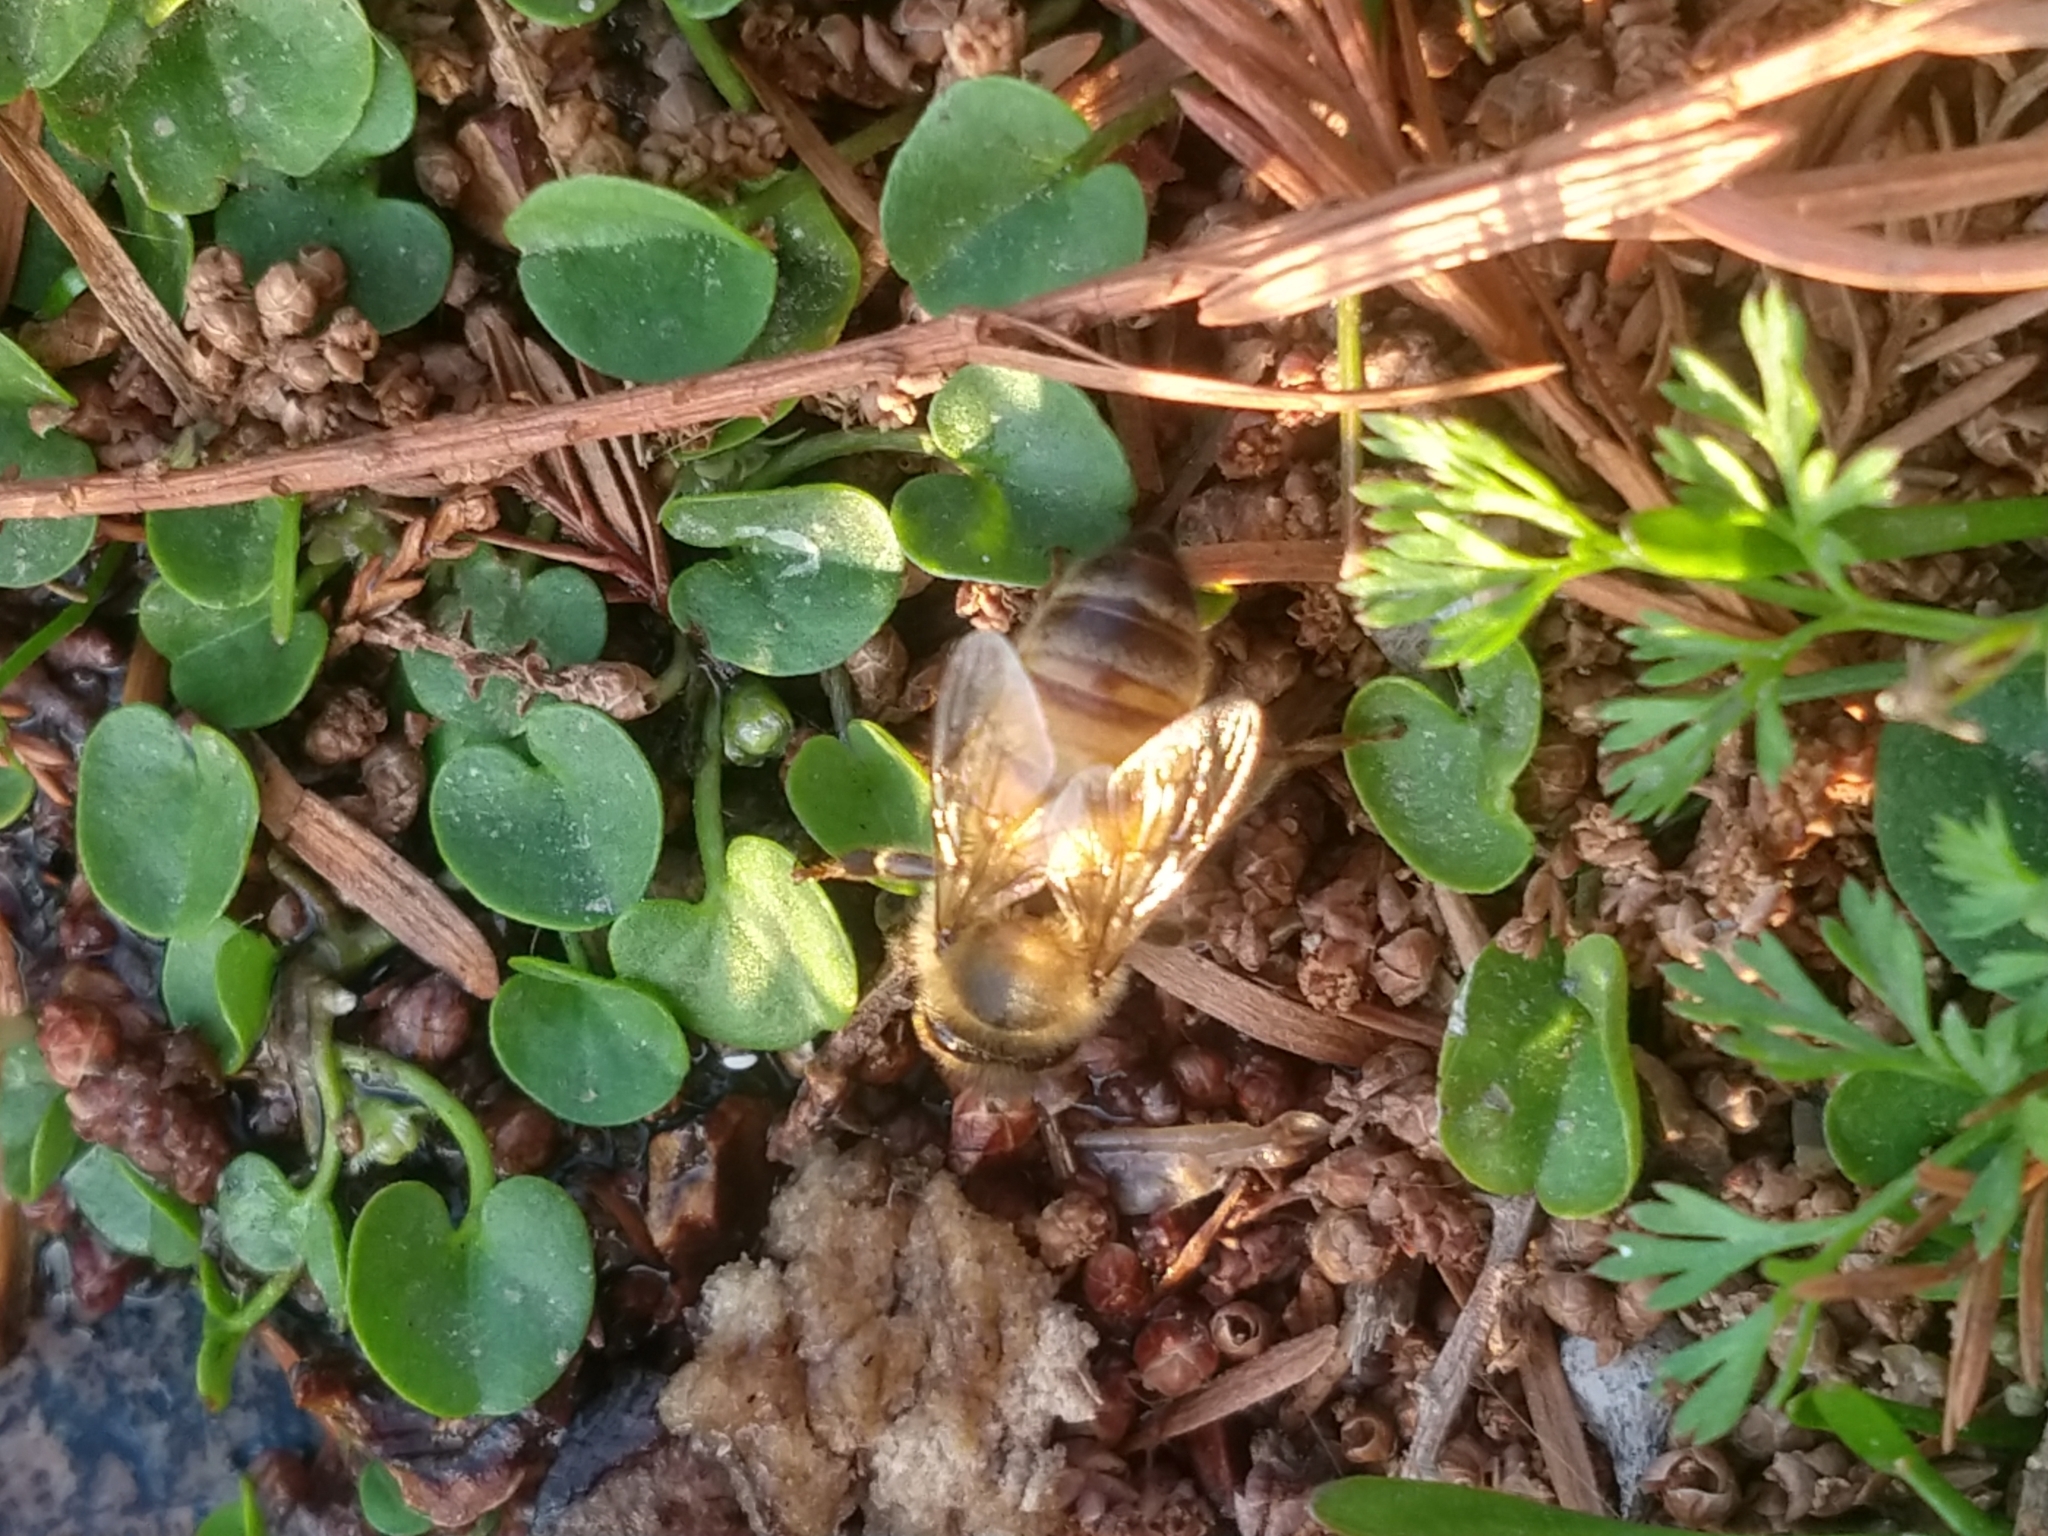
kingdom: Animalia
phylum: Arthropoda
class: Insecta
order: Hymenoptera
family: Apidae
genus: Apis
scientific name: Apis mellifera
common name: Honey bee
